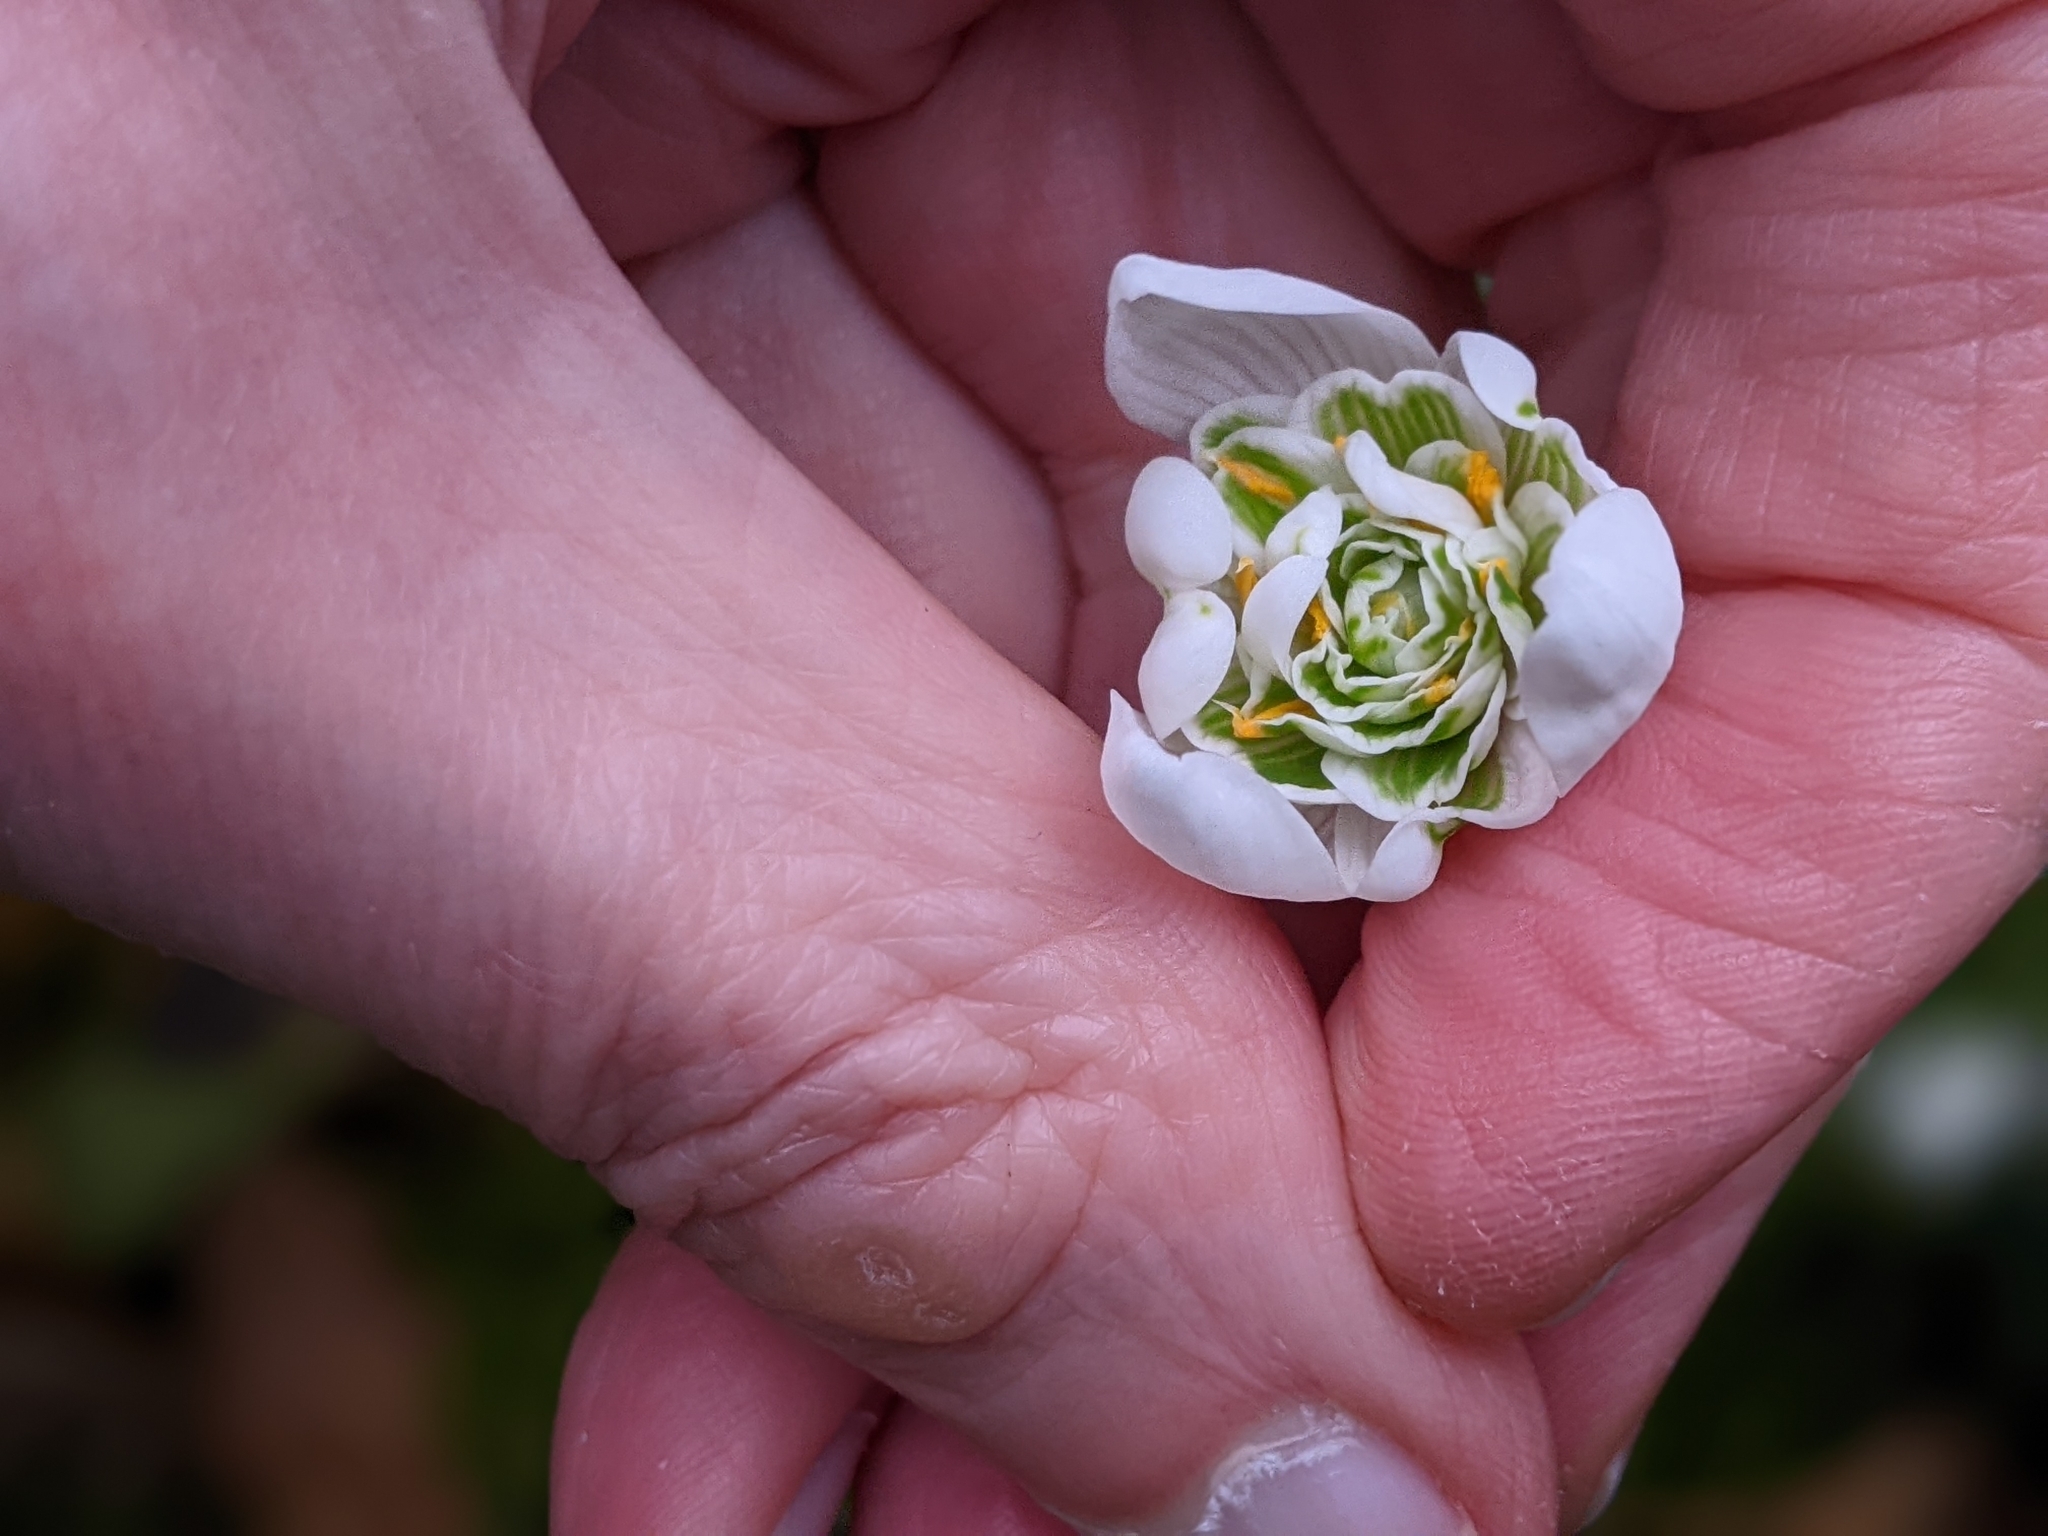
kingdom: Plantae
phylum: Tracheophyta
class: Liliopsida
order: Asparagales
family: Amaryllidaceae
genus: Galanthus
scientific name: Galanthus nivalis
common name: Snowdrop
